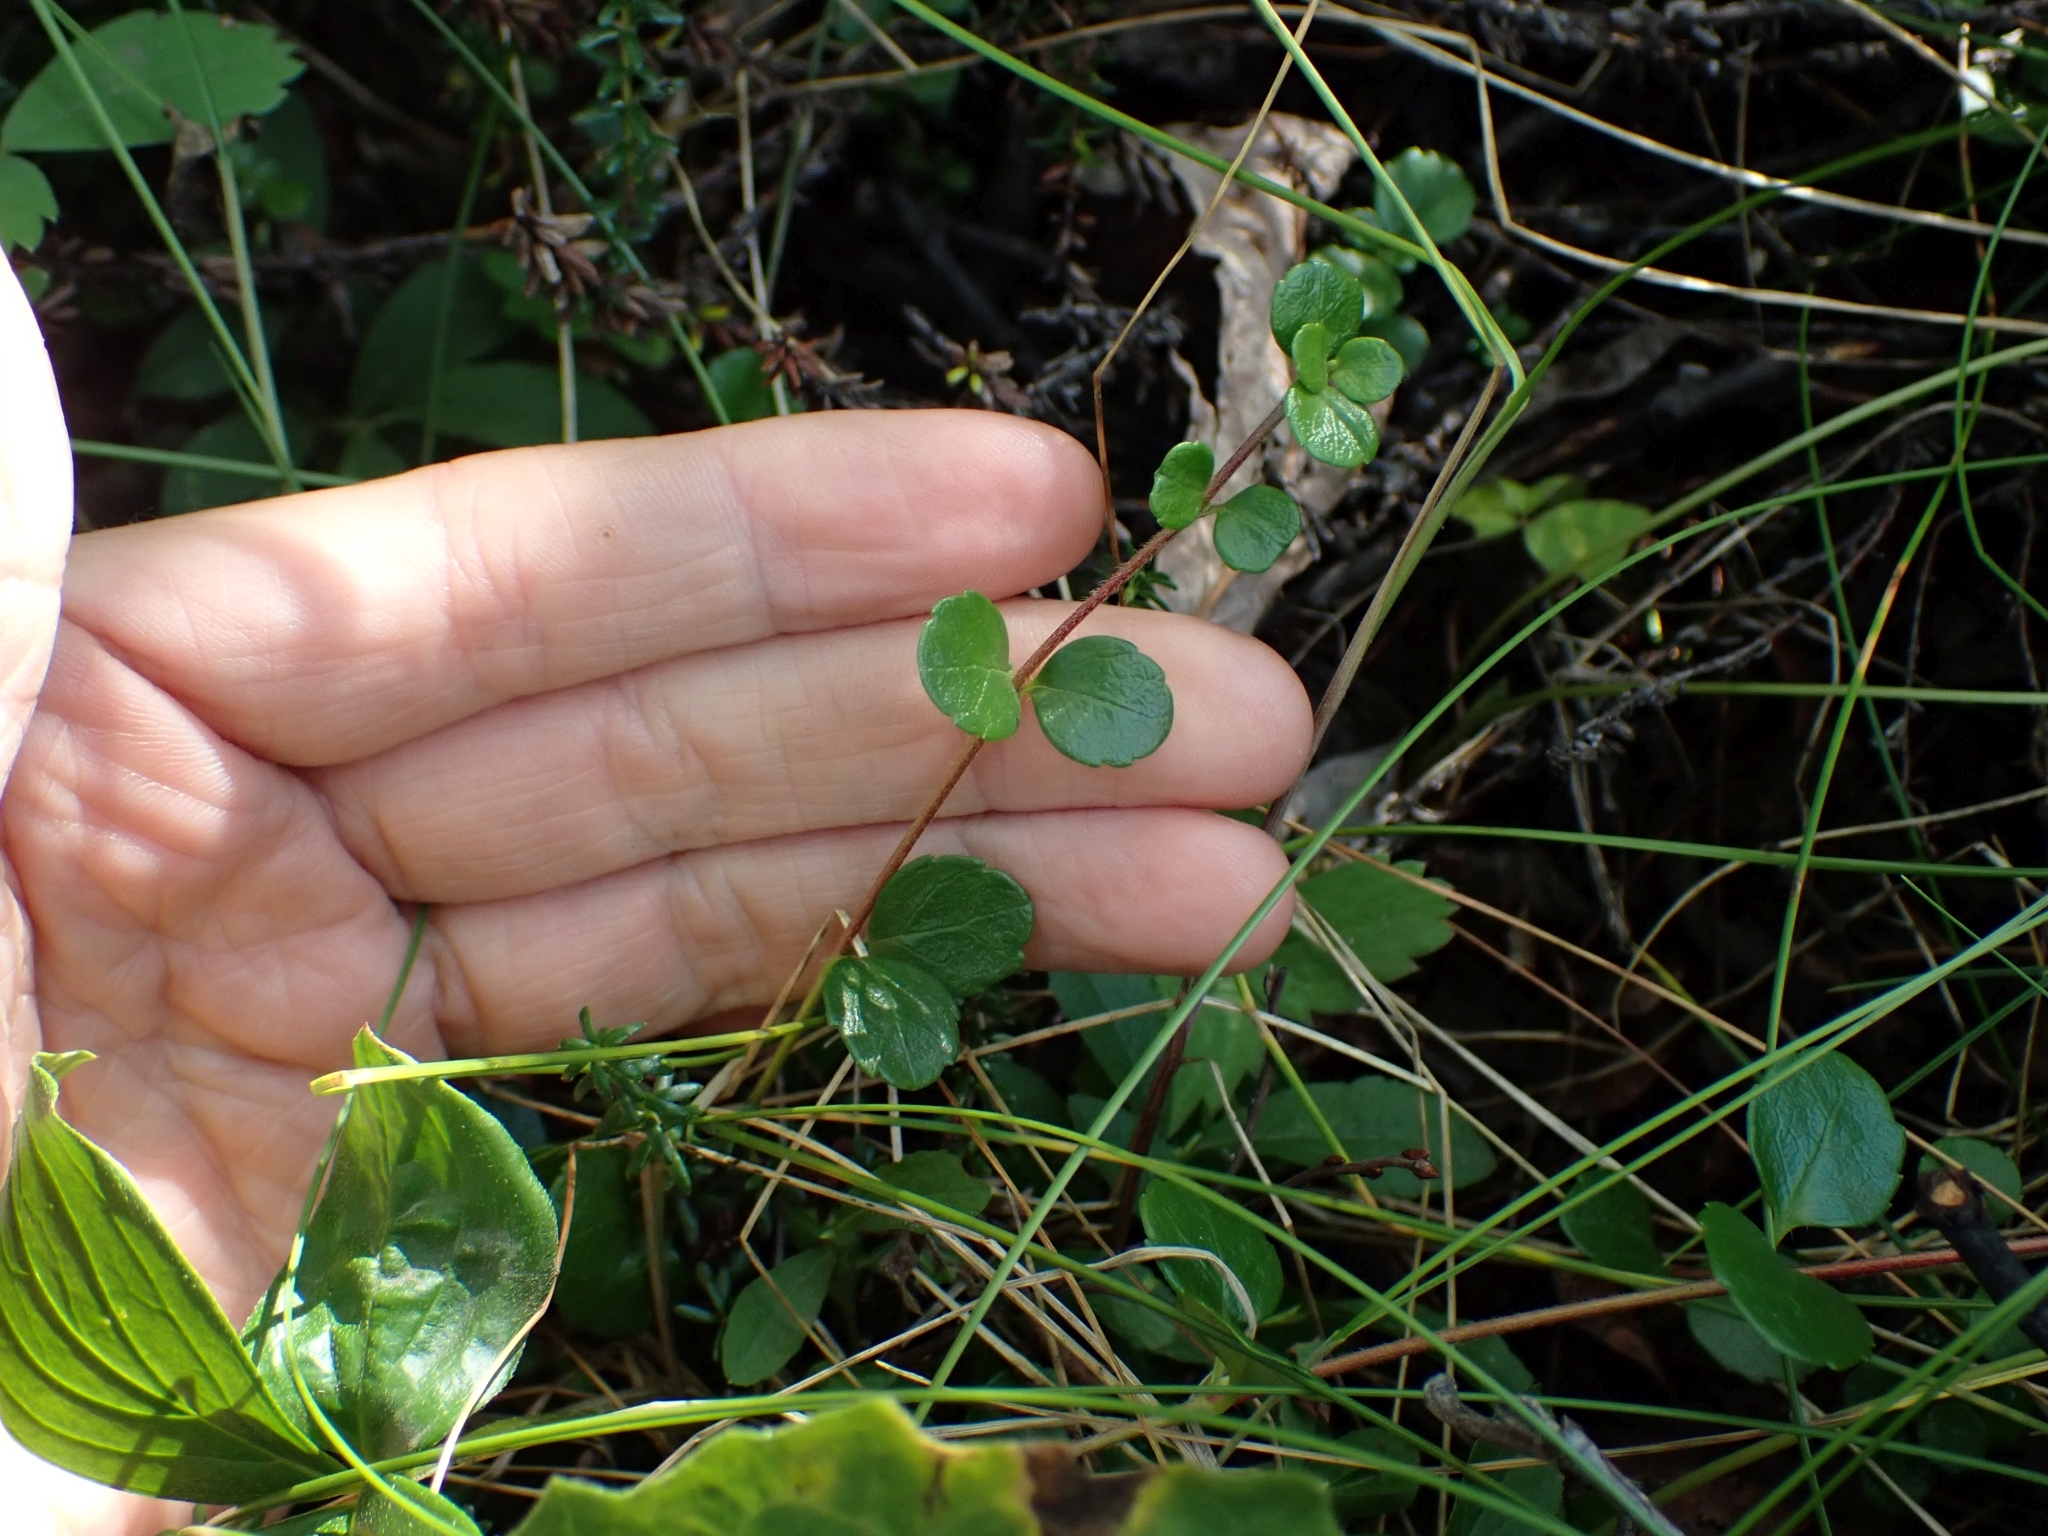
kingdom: Plantae
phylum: Tracheophyta
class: Magnoliopsida
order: Dipsacales
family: Caprifoliaceae
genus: Linnaea
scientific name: Linnaea borealis
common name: Twinflower
